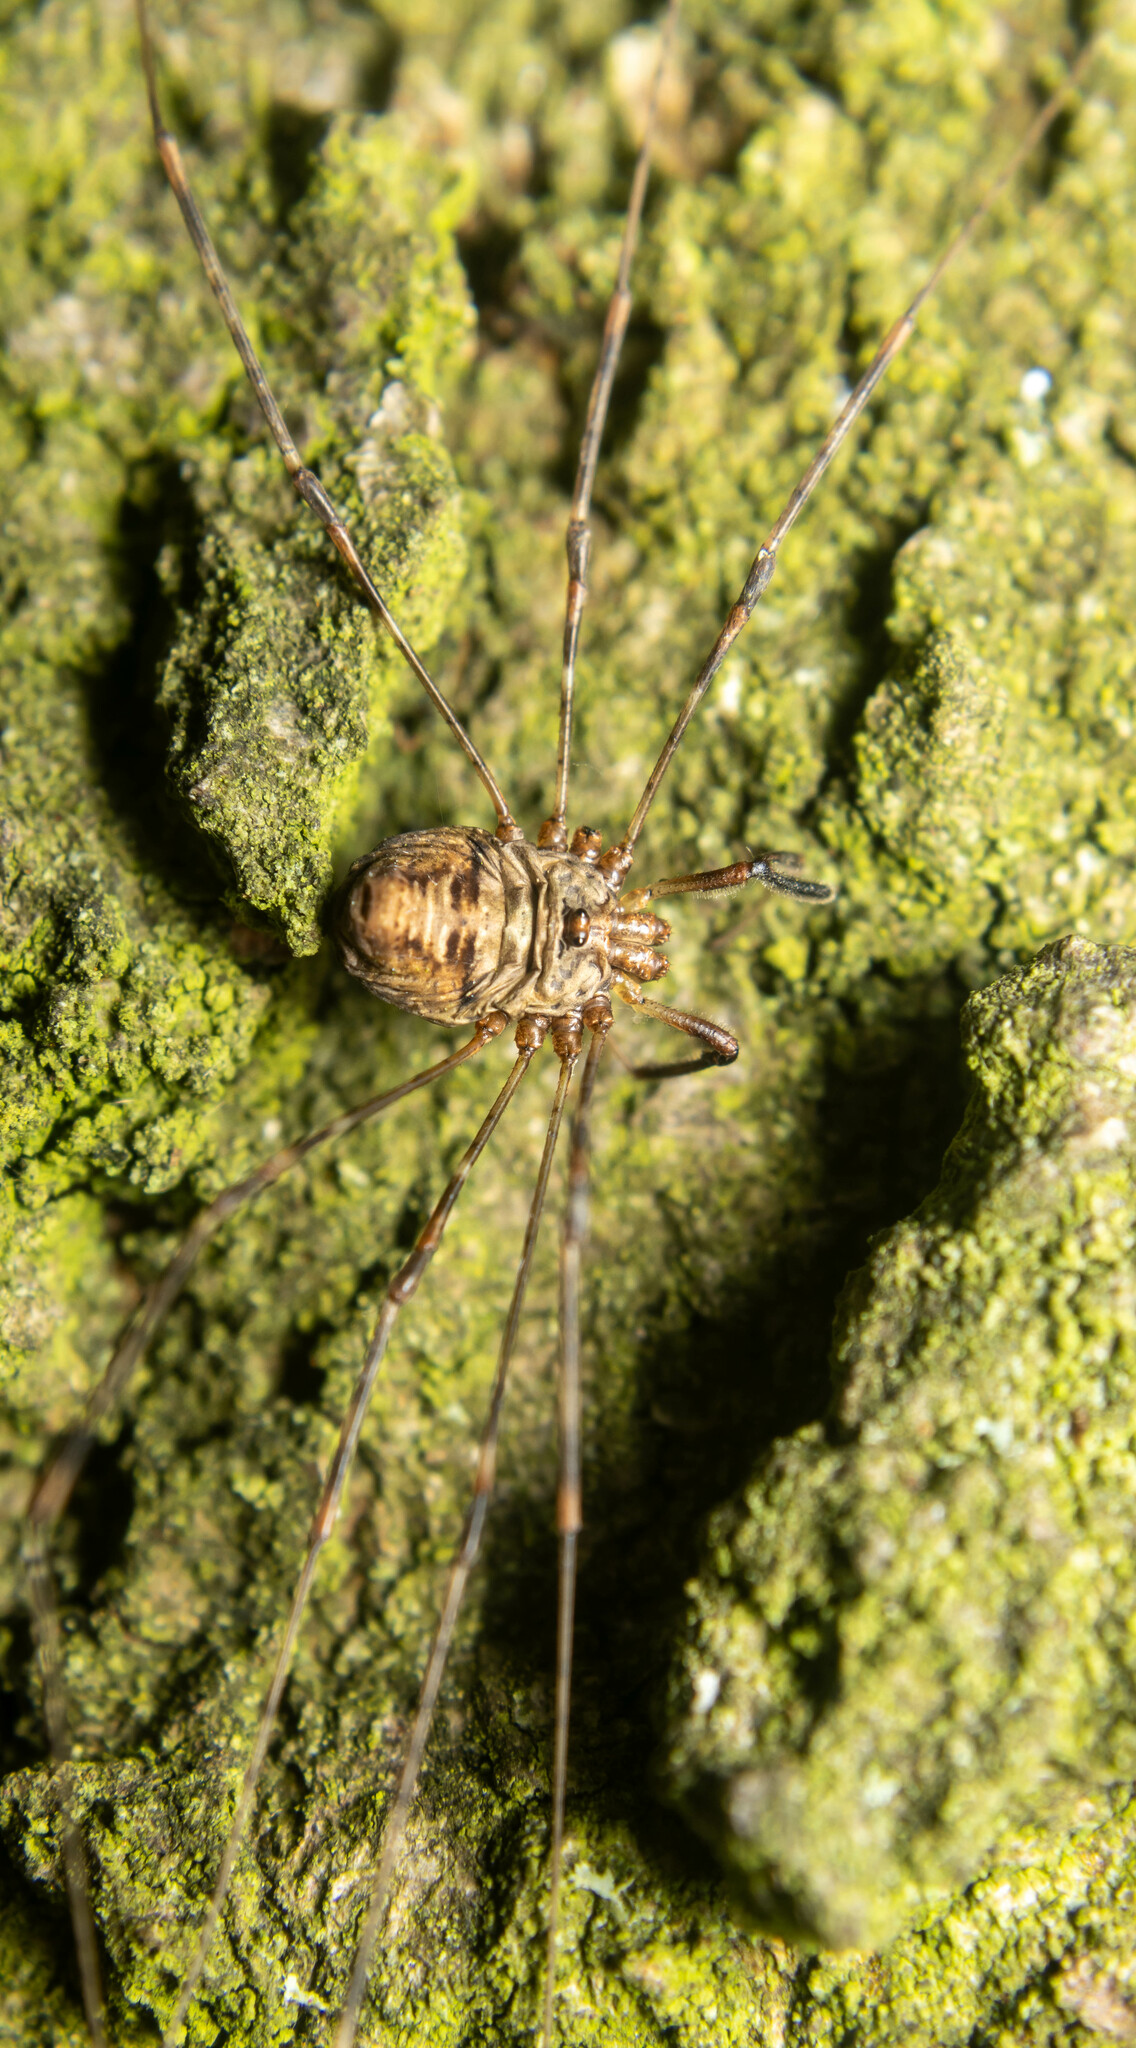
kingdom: Animalia
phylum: Arthropoda
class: Arachnida
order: Opiliones
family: Phalangiidae
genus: Dicranopalpus
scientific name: Dicranopalpus
